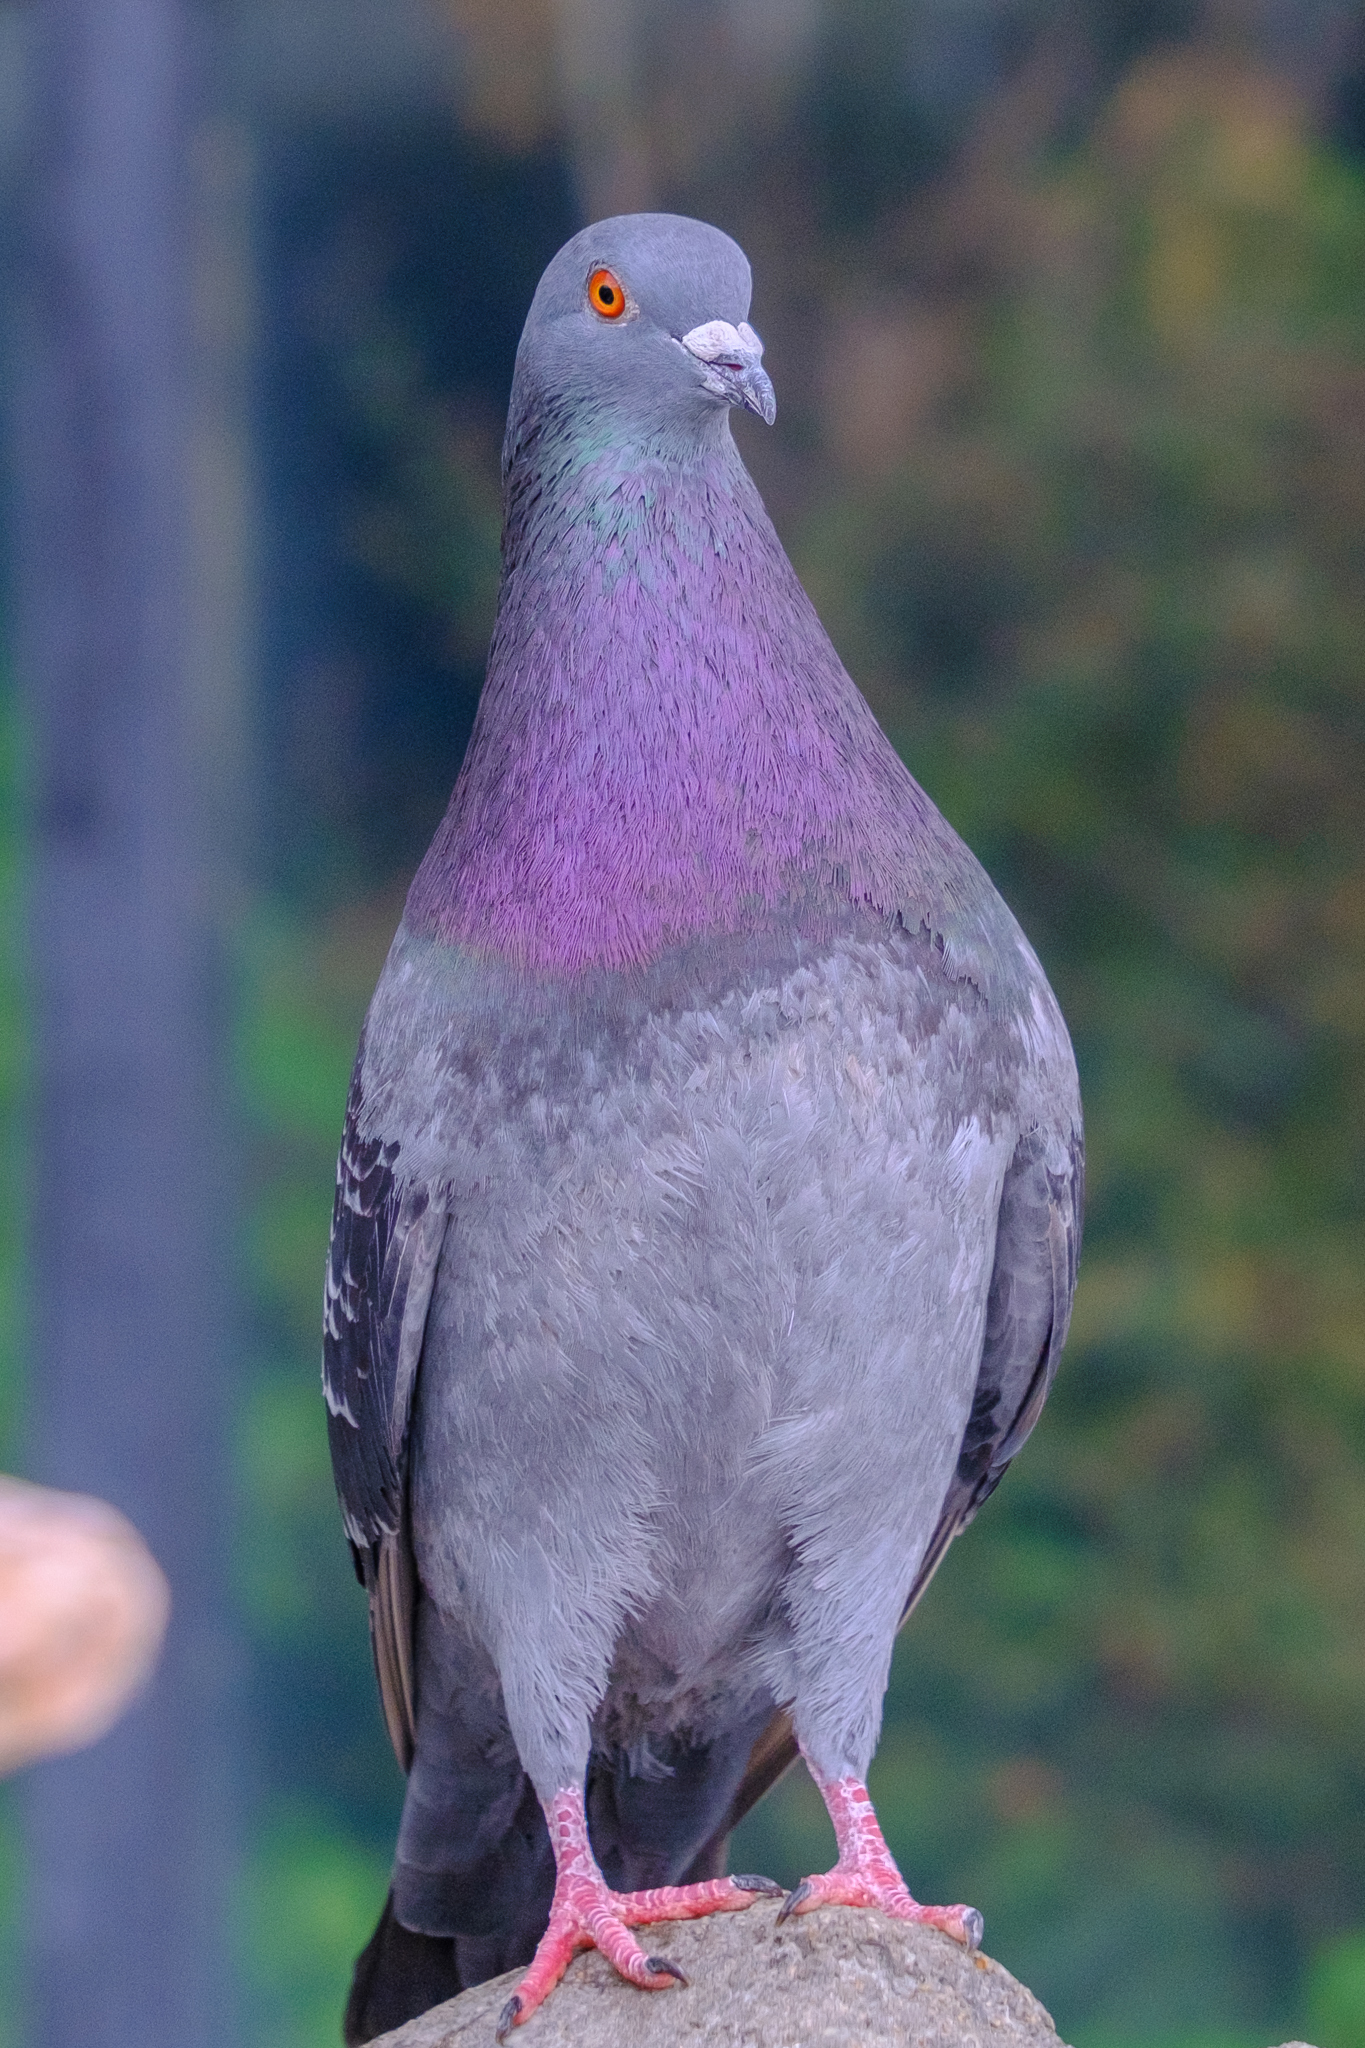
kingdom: Animalia
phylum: Chordata
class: Aves
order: Columbiformes
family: Columbidae
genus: Columba
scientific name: Columba livia
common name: Rock pigeon
